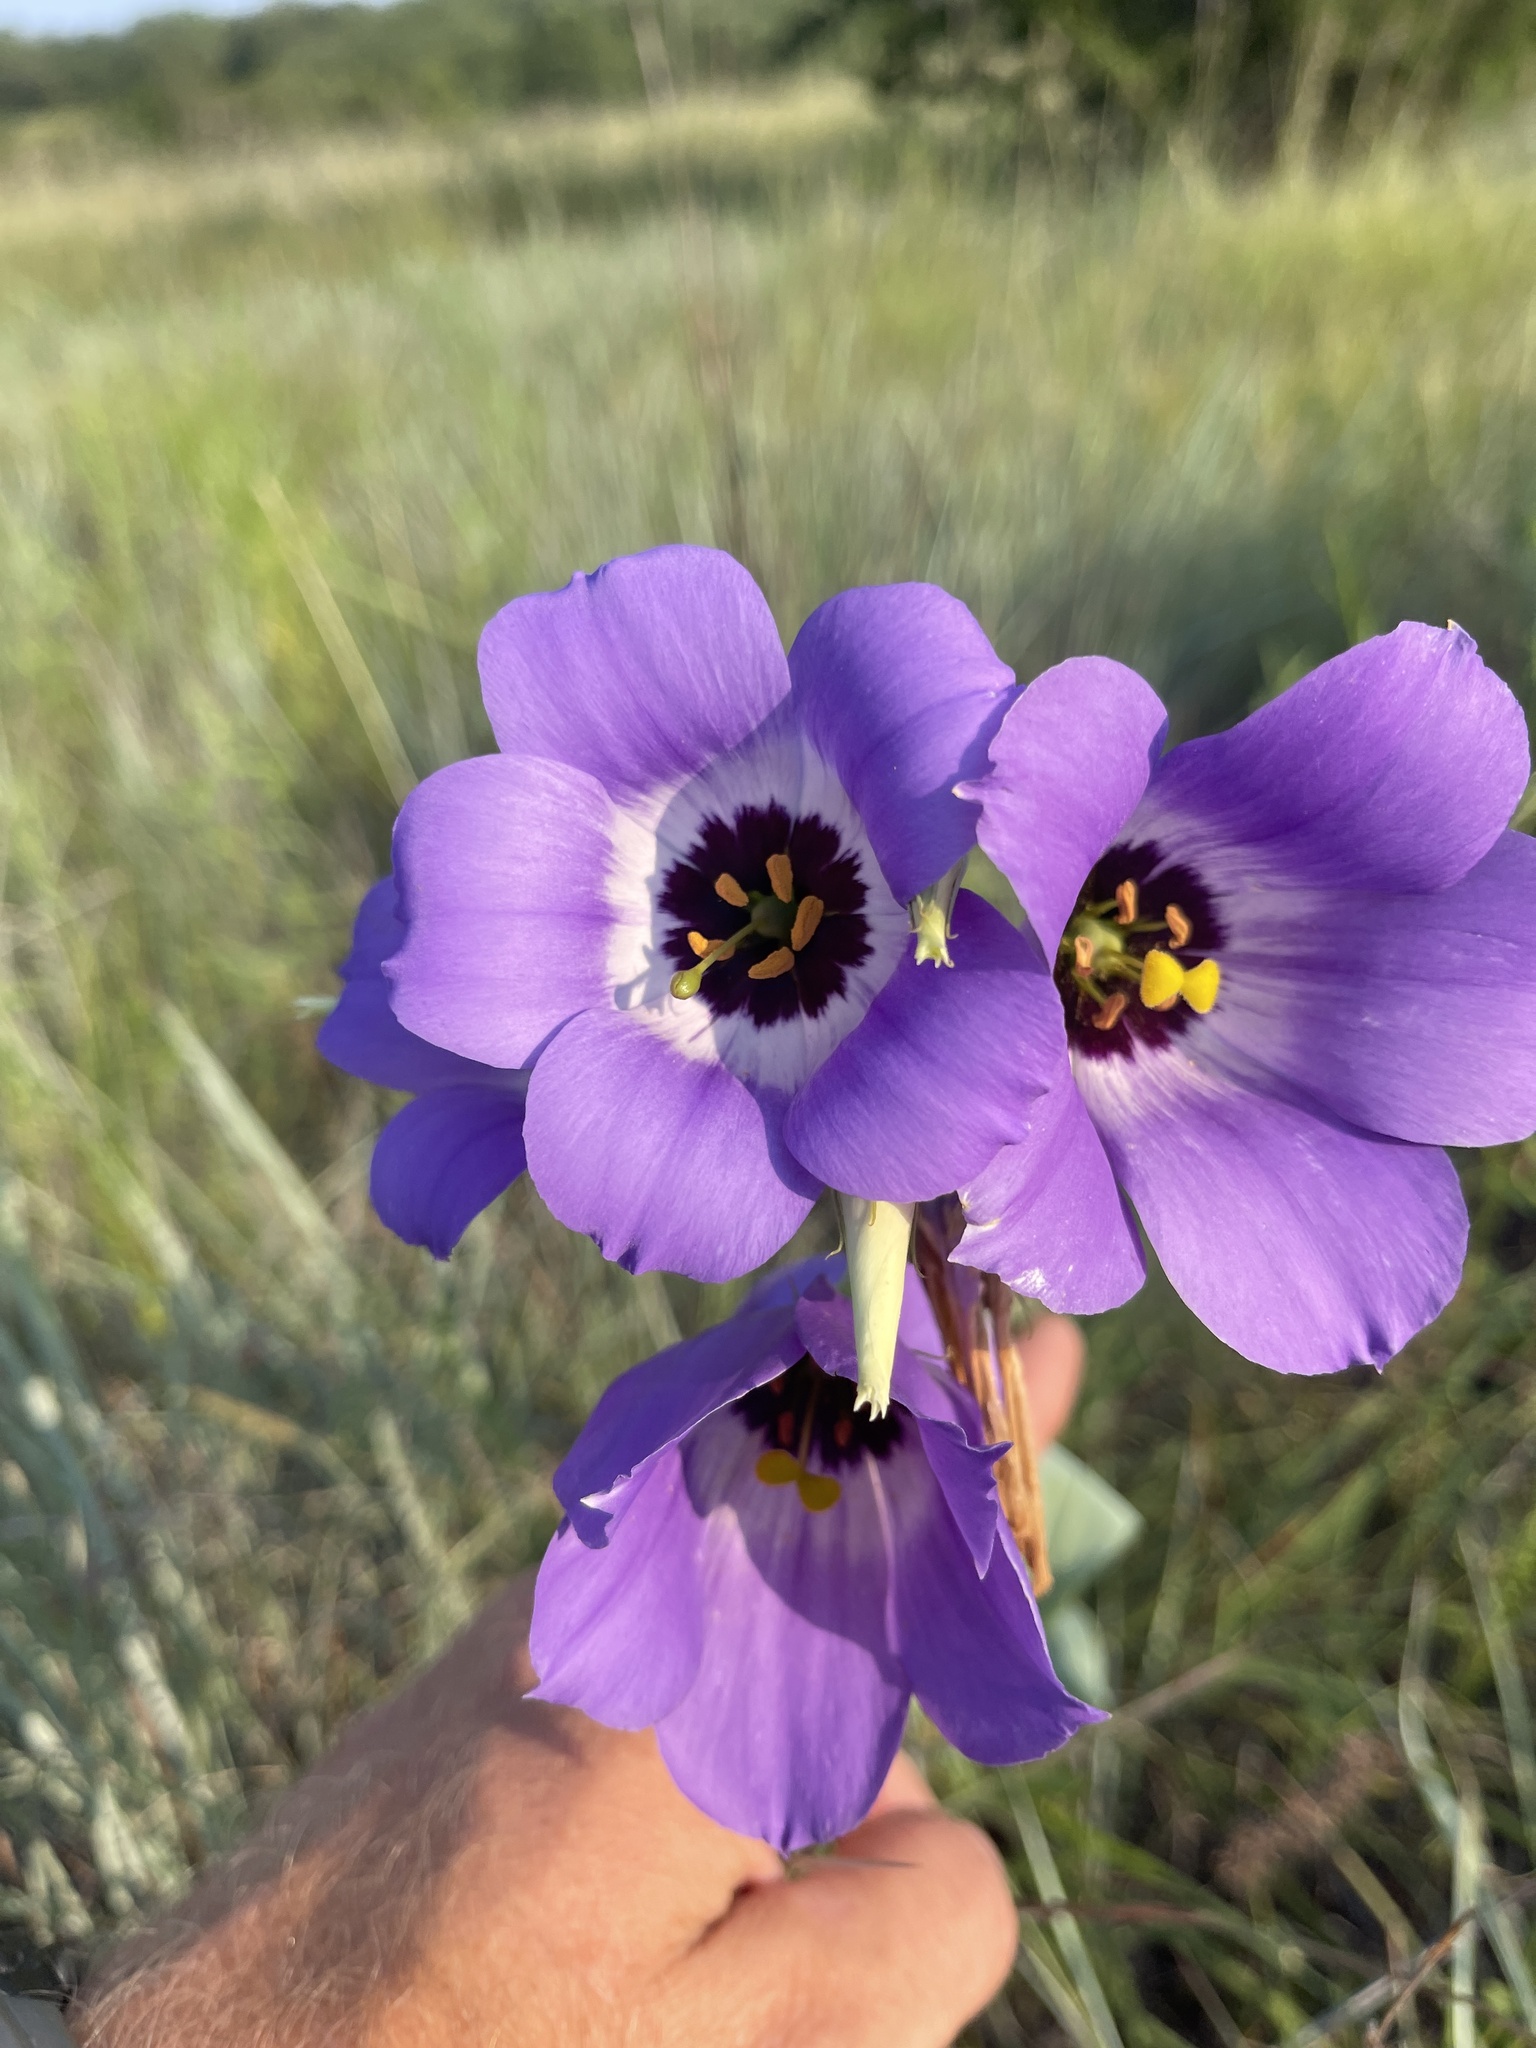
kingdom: Plantae
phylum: Tracheophyta
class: Magnoliopsida
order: Gentianales
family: Gentianaceae
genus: Eustoma
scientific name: Eustoma russellianum
